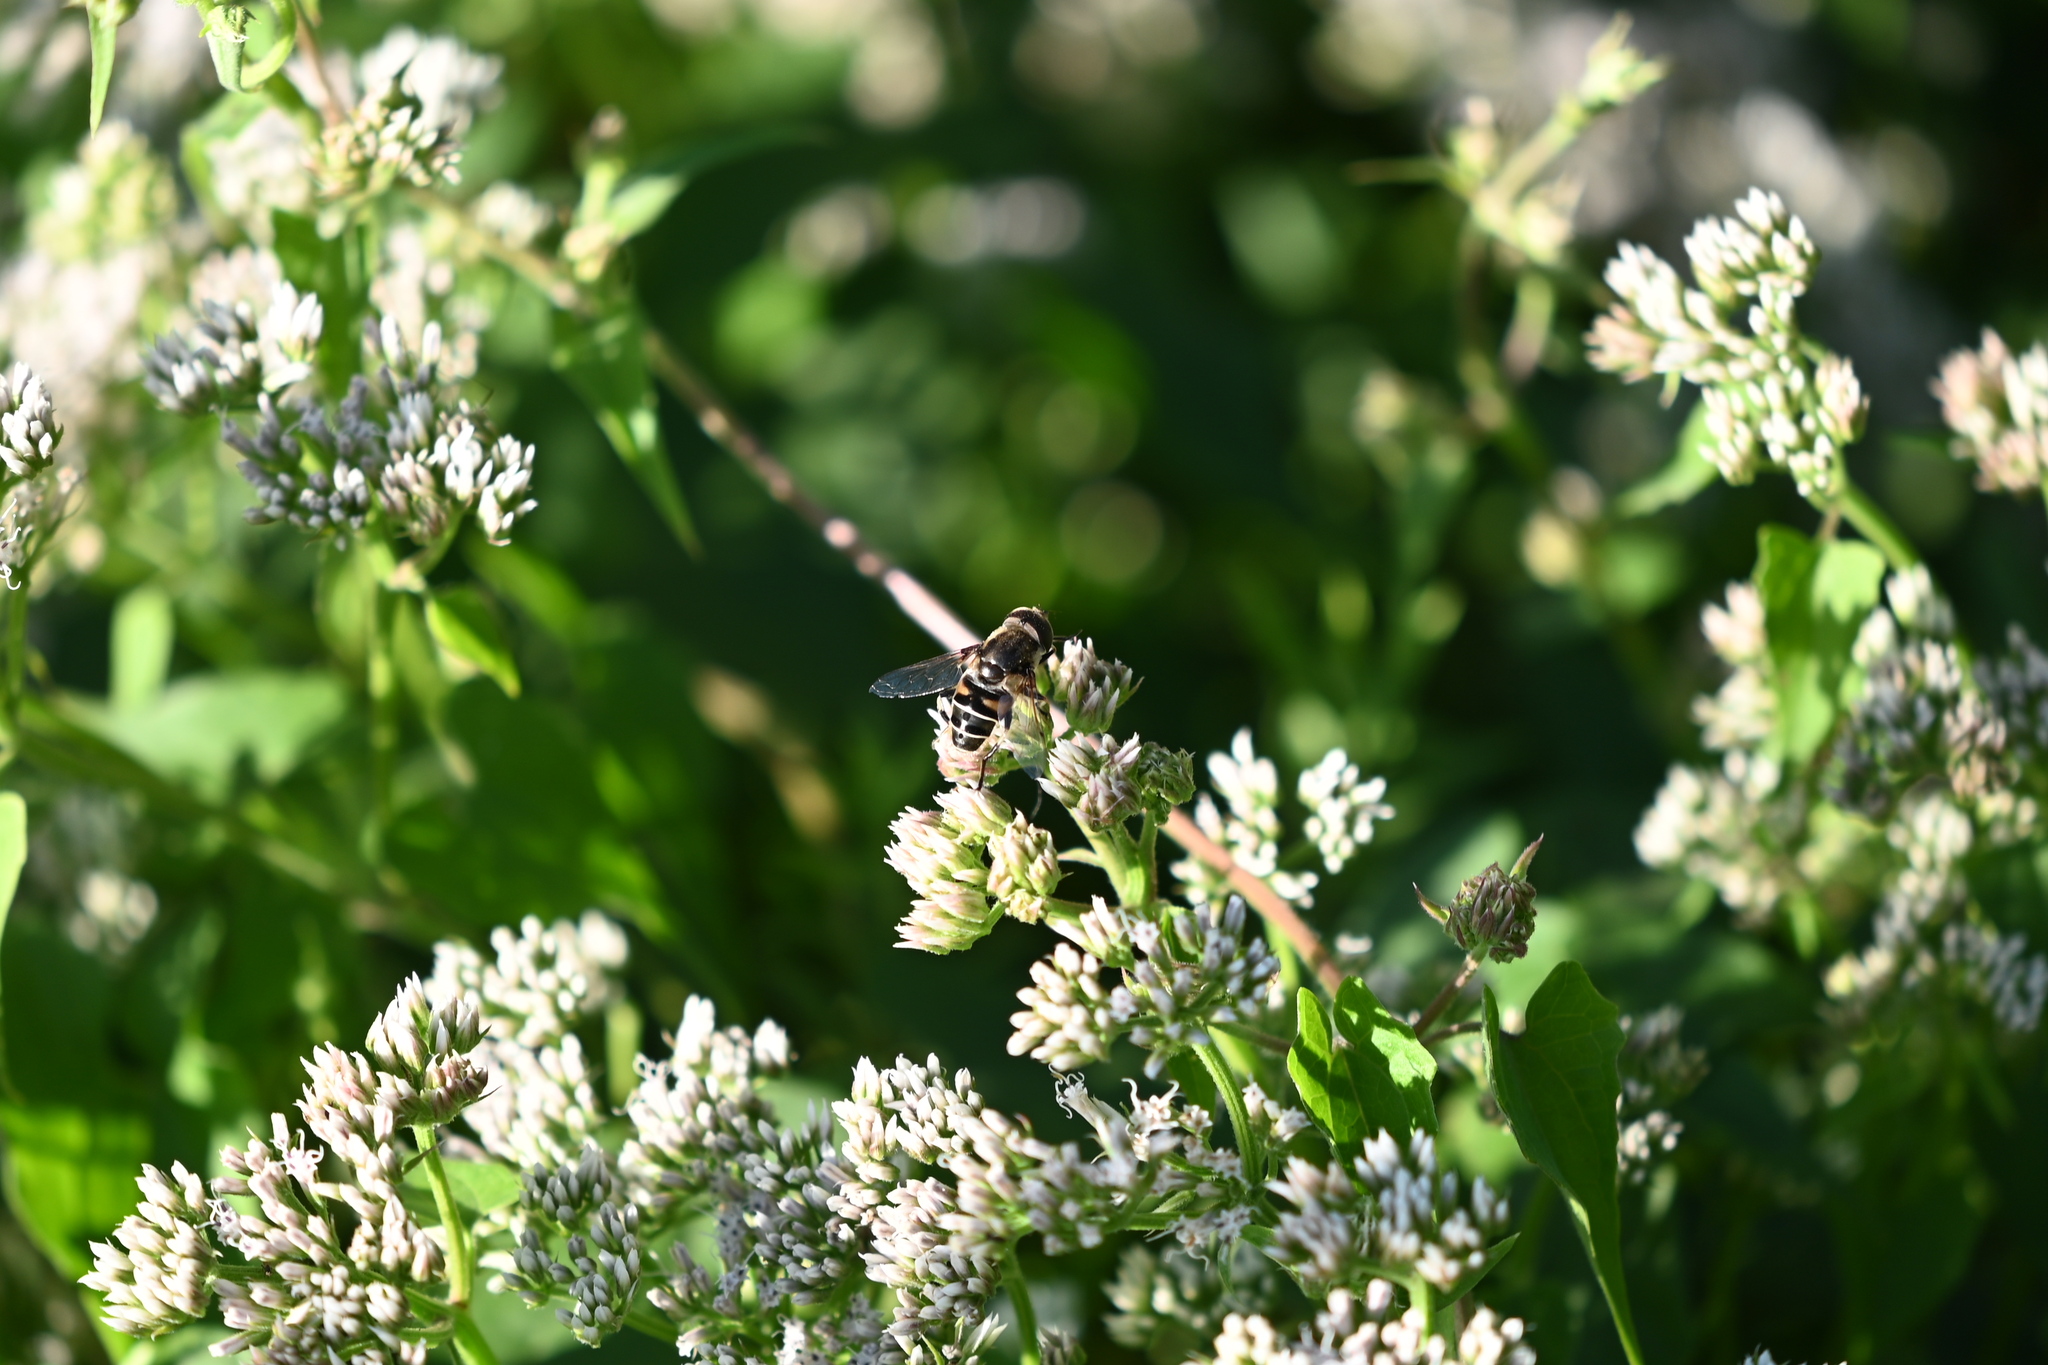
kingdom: Animalia
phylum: Arthropoda
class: Insecta
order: Diptera
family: Syrphidae
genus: Eristalis
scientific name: Eristalis dimidiata
